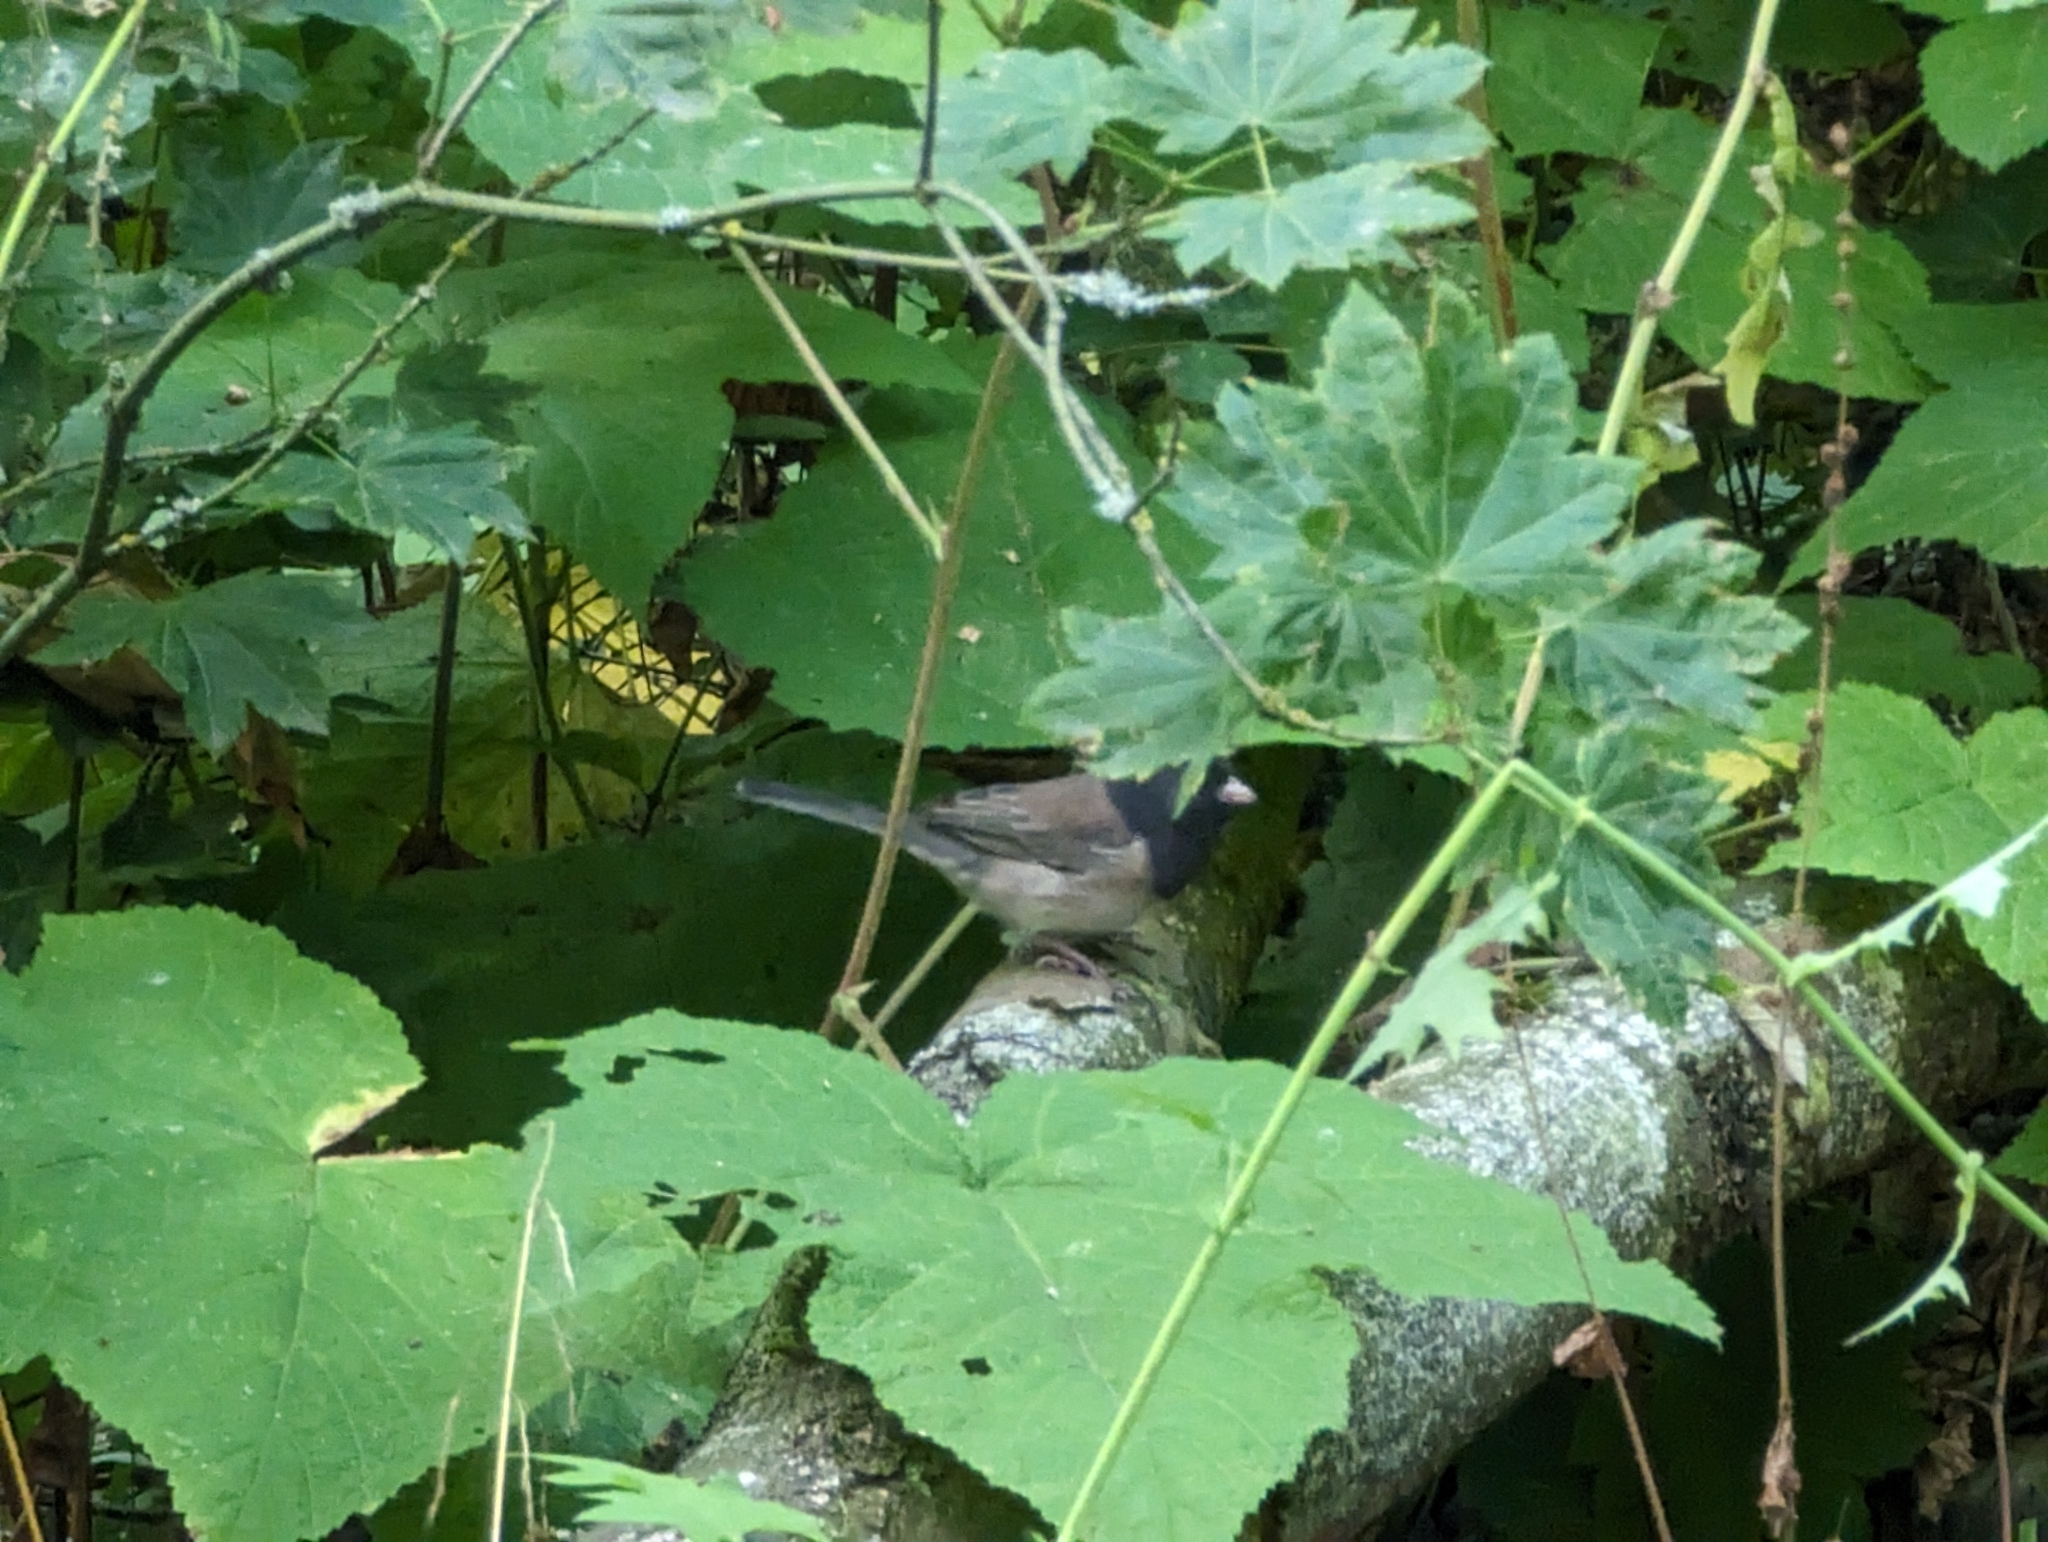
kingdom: Animalia
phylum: Chordata
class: Aves
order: Passeriformes
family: Passerellidae
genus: Junco
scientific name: Junco hyemalis
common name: Dark-eyed junco
